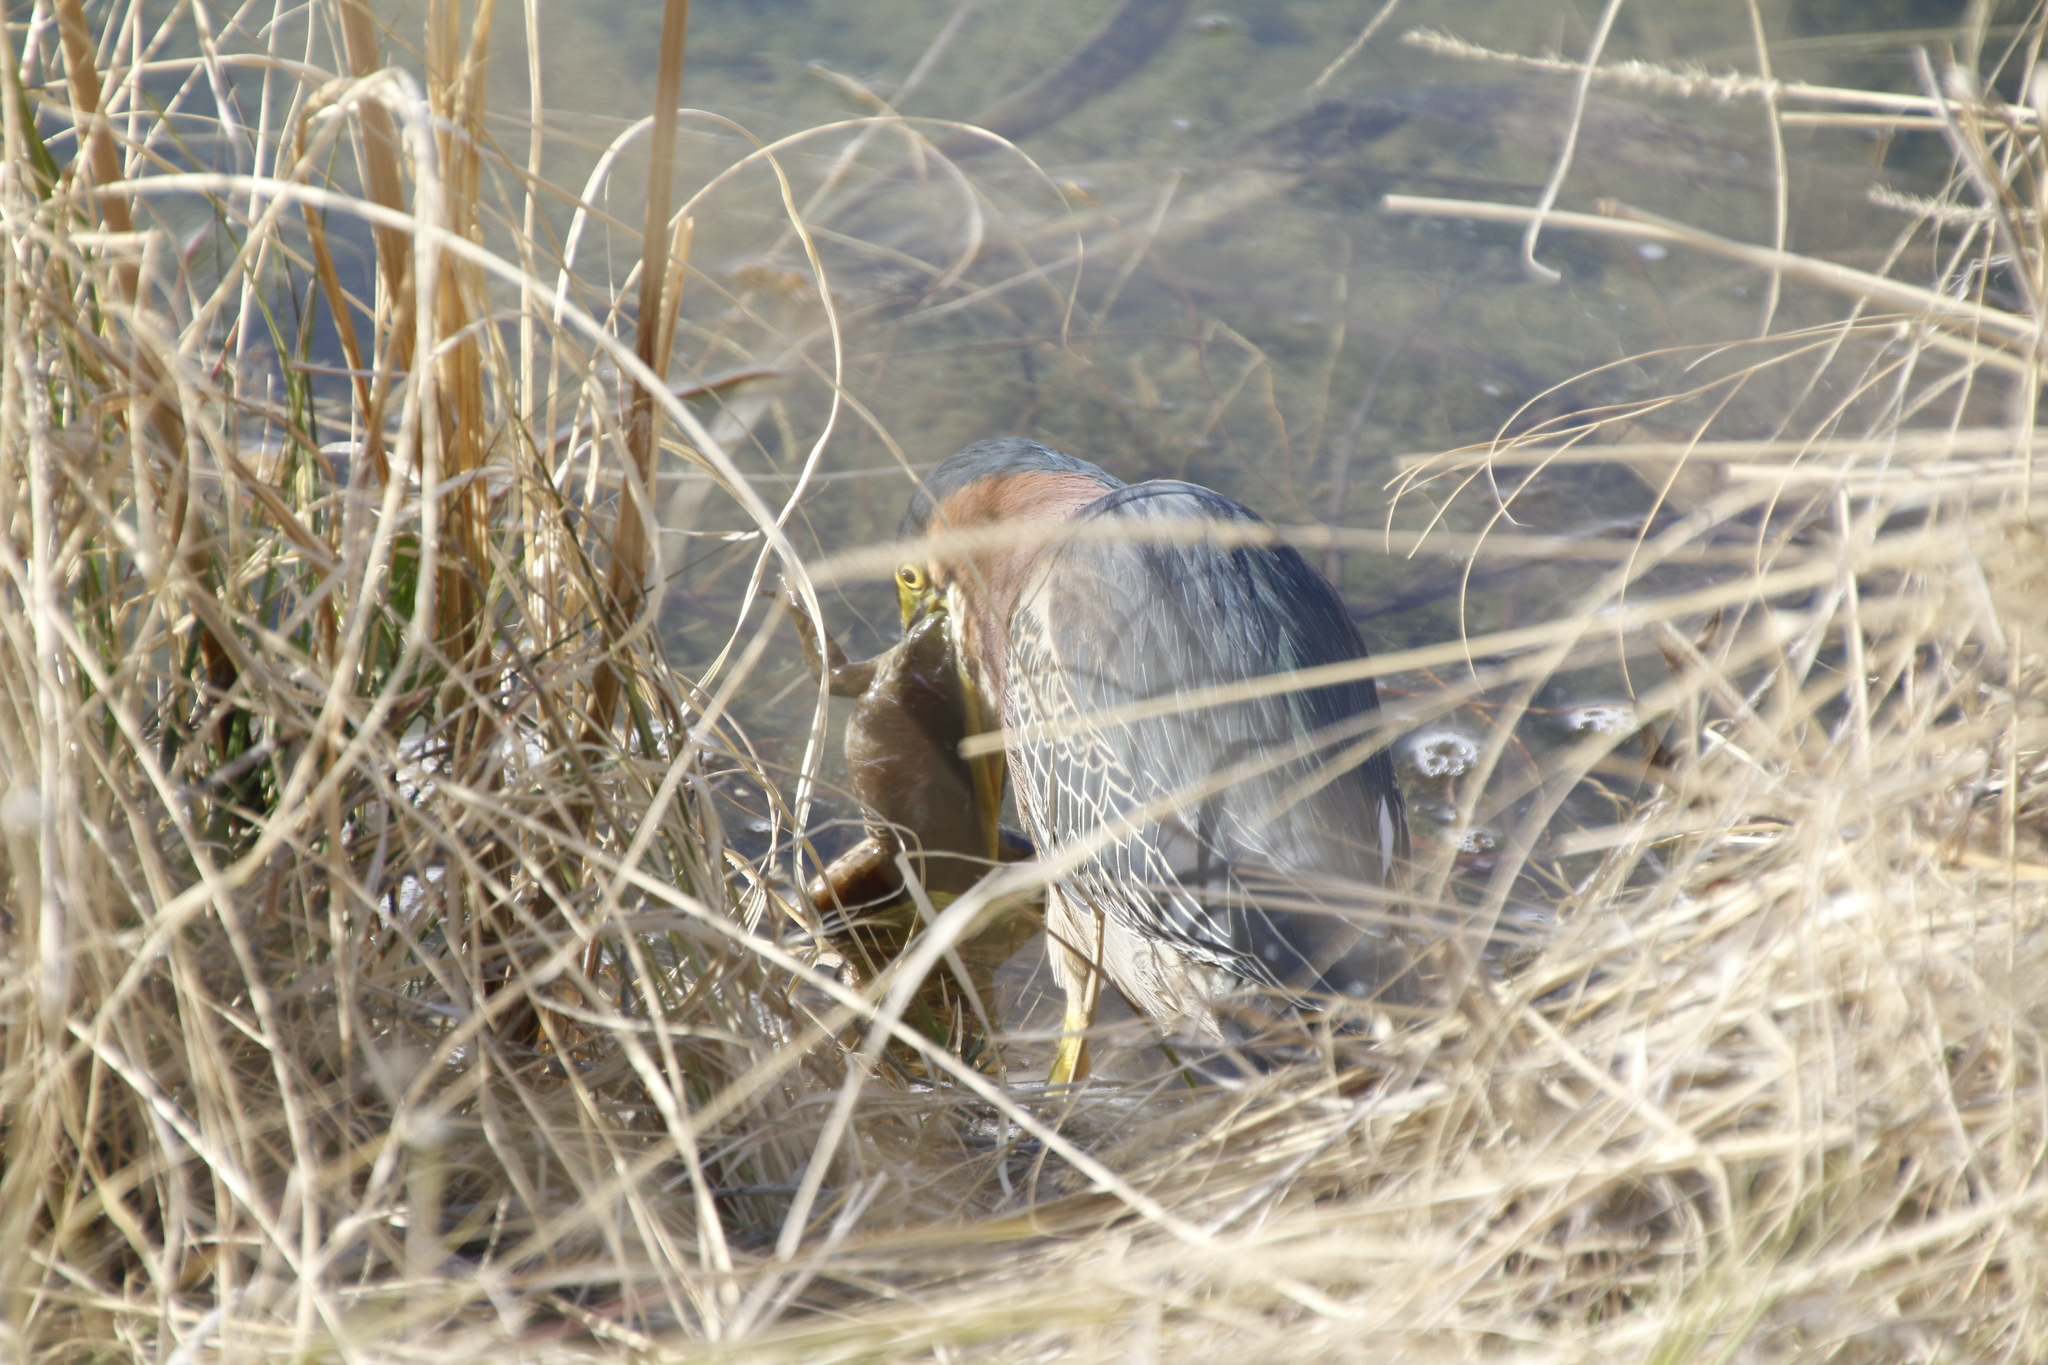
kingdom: Animalia
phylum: Chordata
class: Aves
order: Pelecaniformes
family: Ardeidae
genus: Butorides
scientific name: Butorides virescens
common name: Green heron
